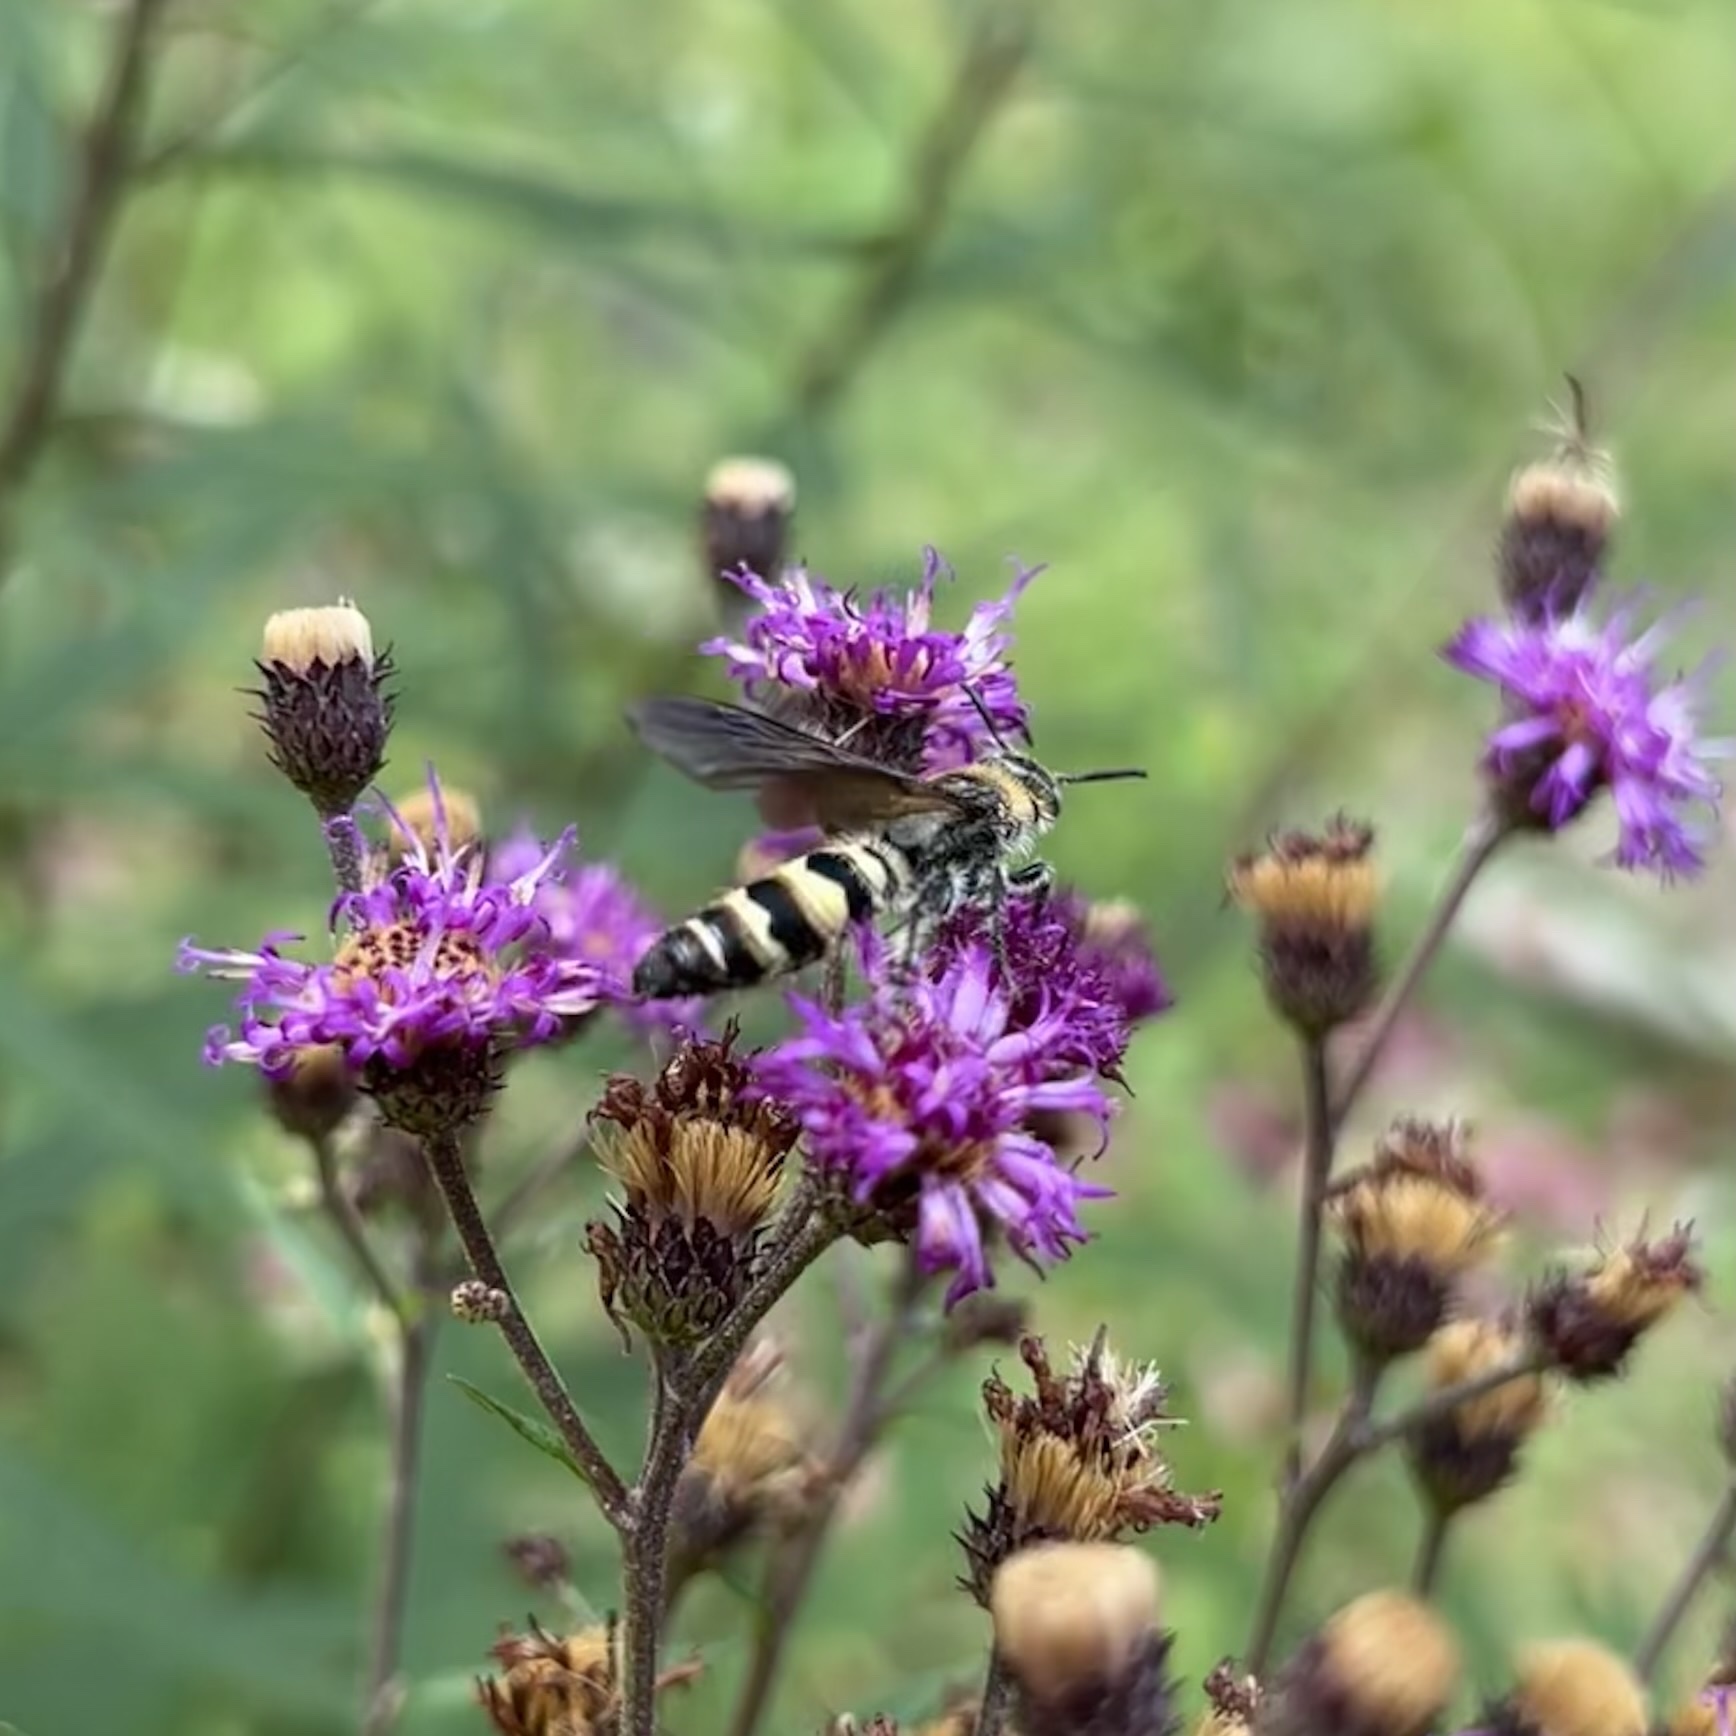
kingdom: Animalia
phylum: Arthropoda
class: Insecta
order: Hymenoptera
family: Scoliidae
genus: Dielis
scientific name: Dielis
